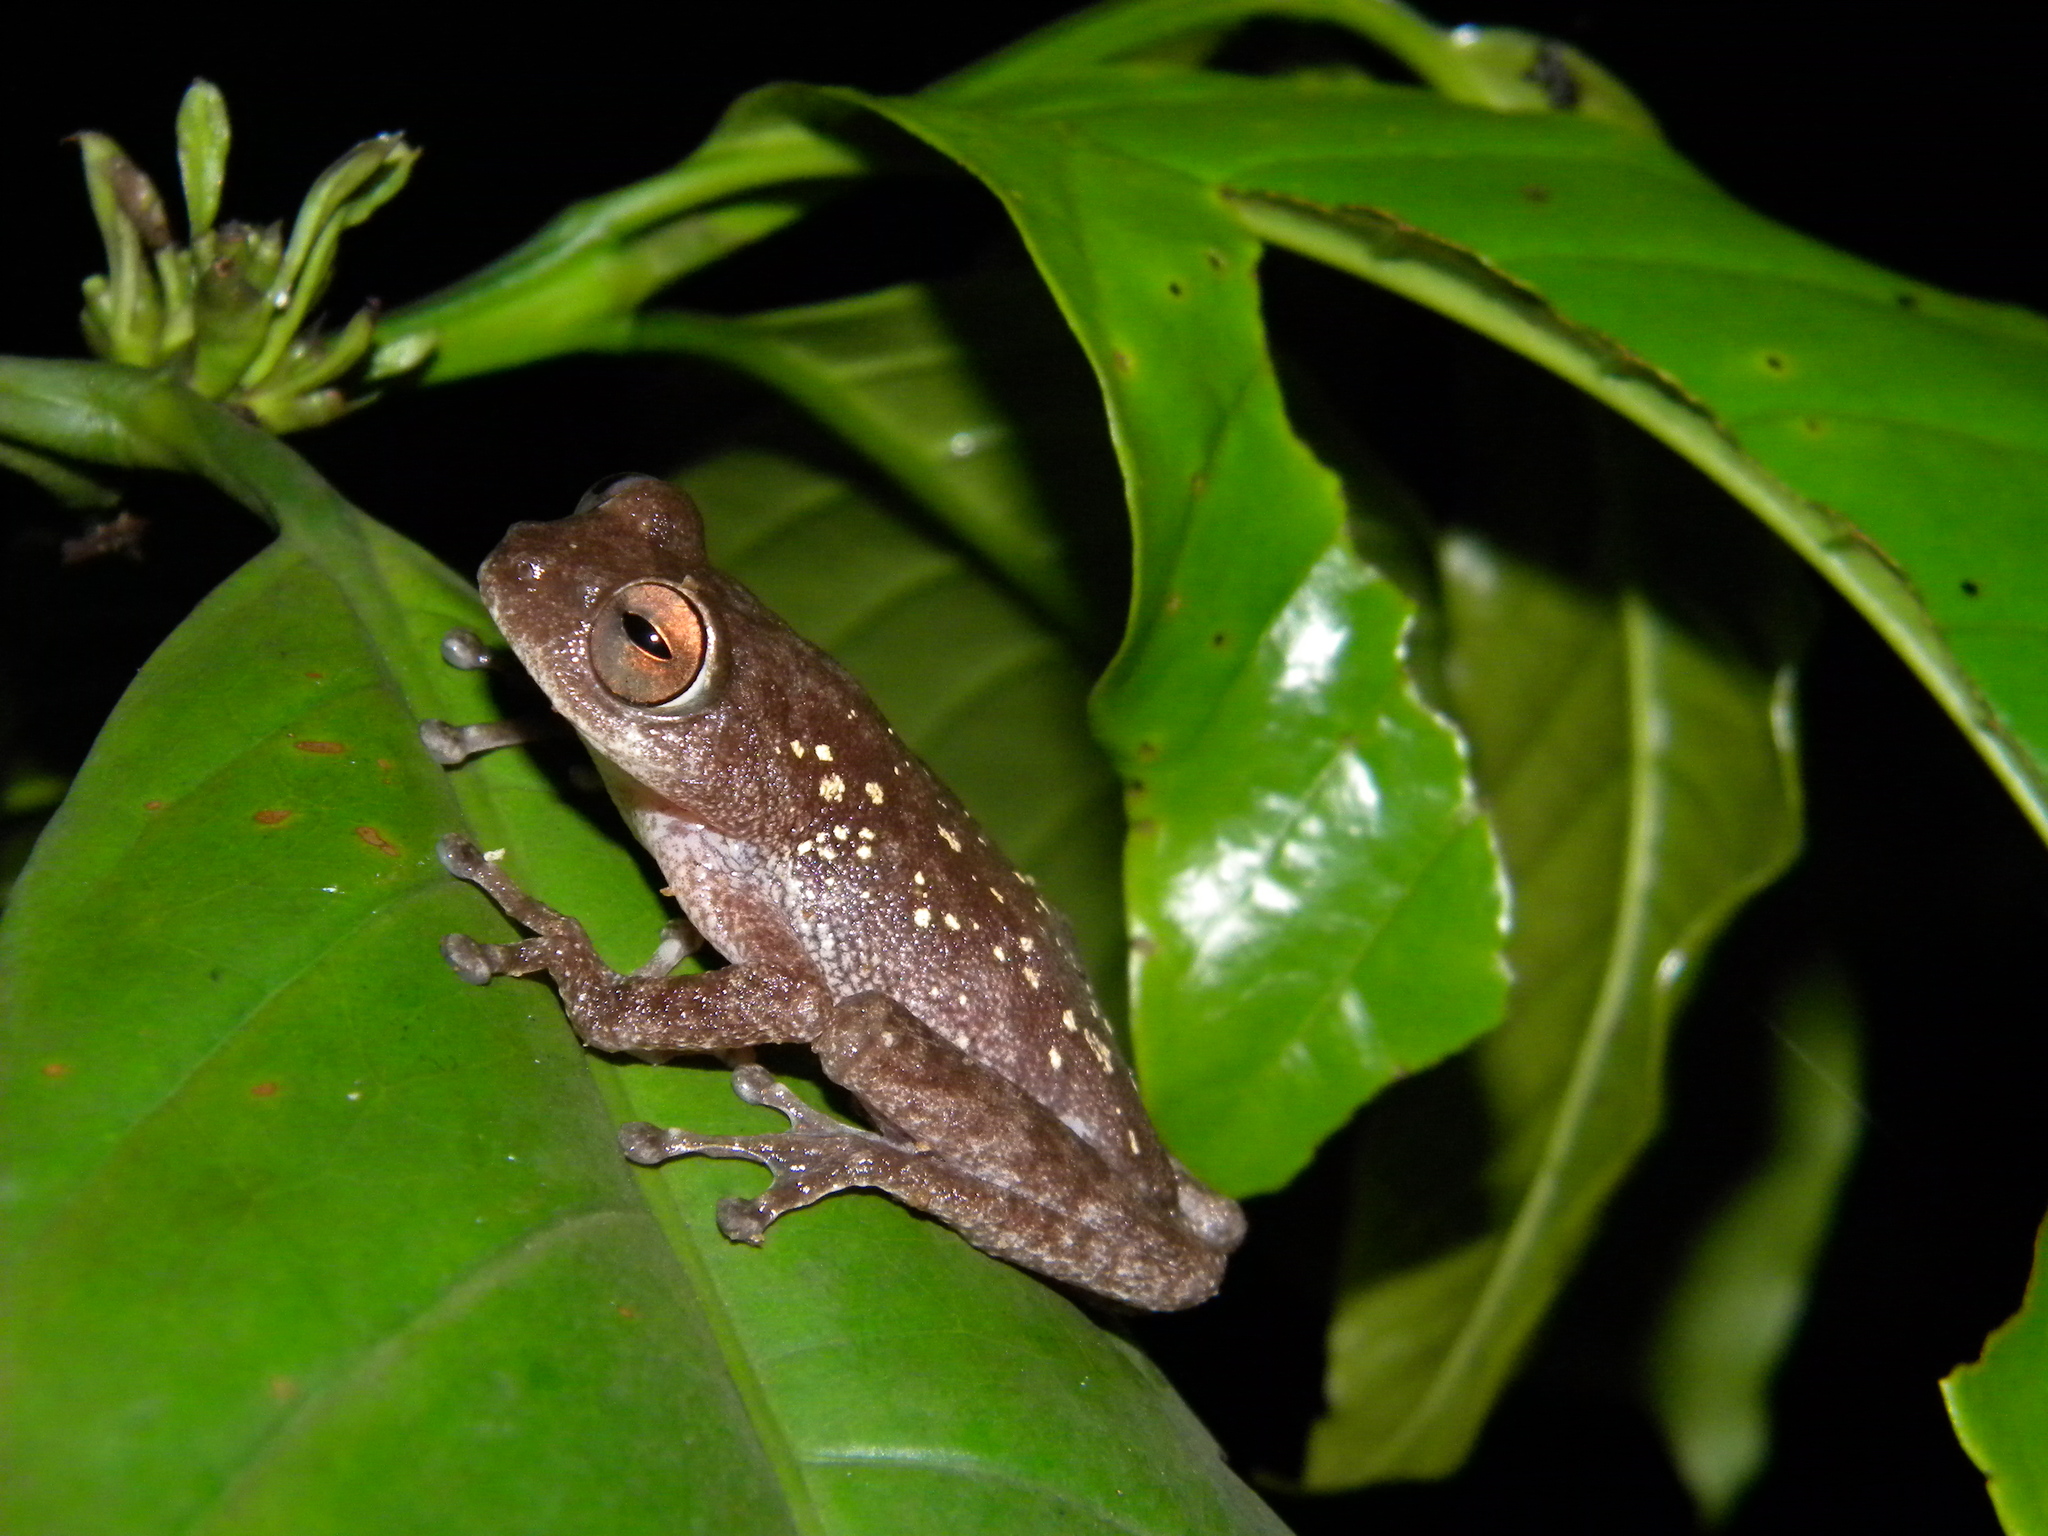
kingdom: Animalia
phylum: Chordata
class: Amphibia
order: Anura
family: Rhacophoridae
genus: Raorchestes
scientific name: Raorchestes ponmudi
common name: Large ponmudi bush frog
